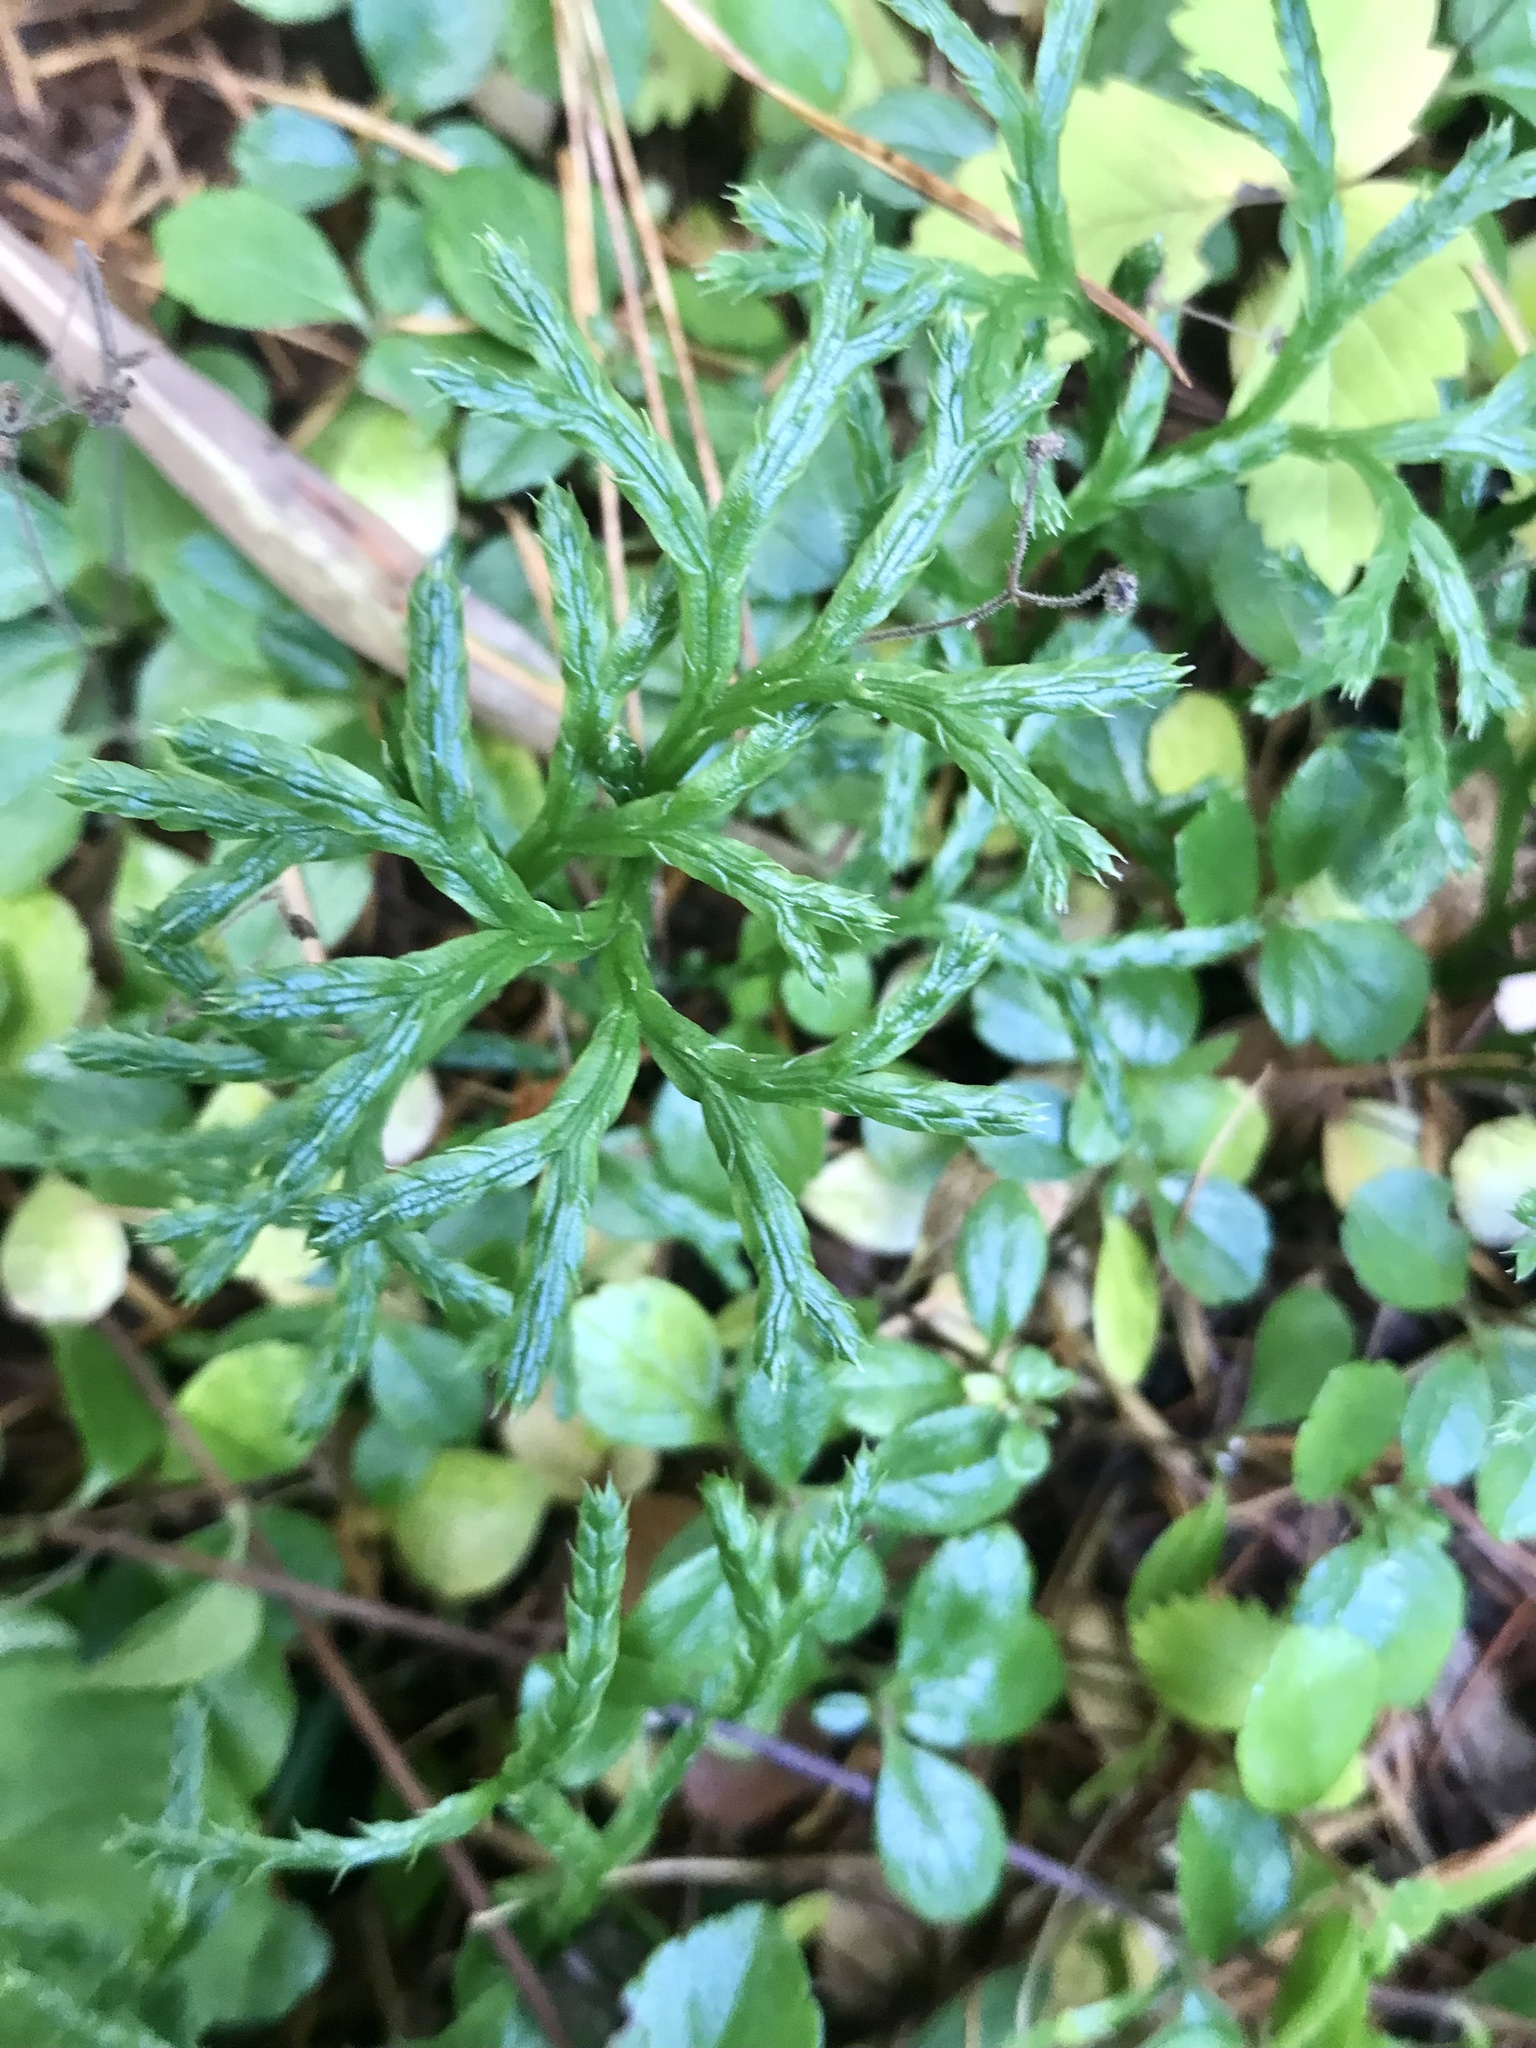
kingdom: Plantae
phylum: Tracheophyta
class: Lycopodiopsida
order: Lycopodiales
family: Lycopodiaceae
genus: Diphasiastrum
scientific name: Diphasiastrum complanatum
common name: Northern running-pine
